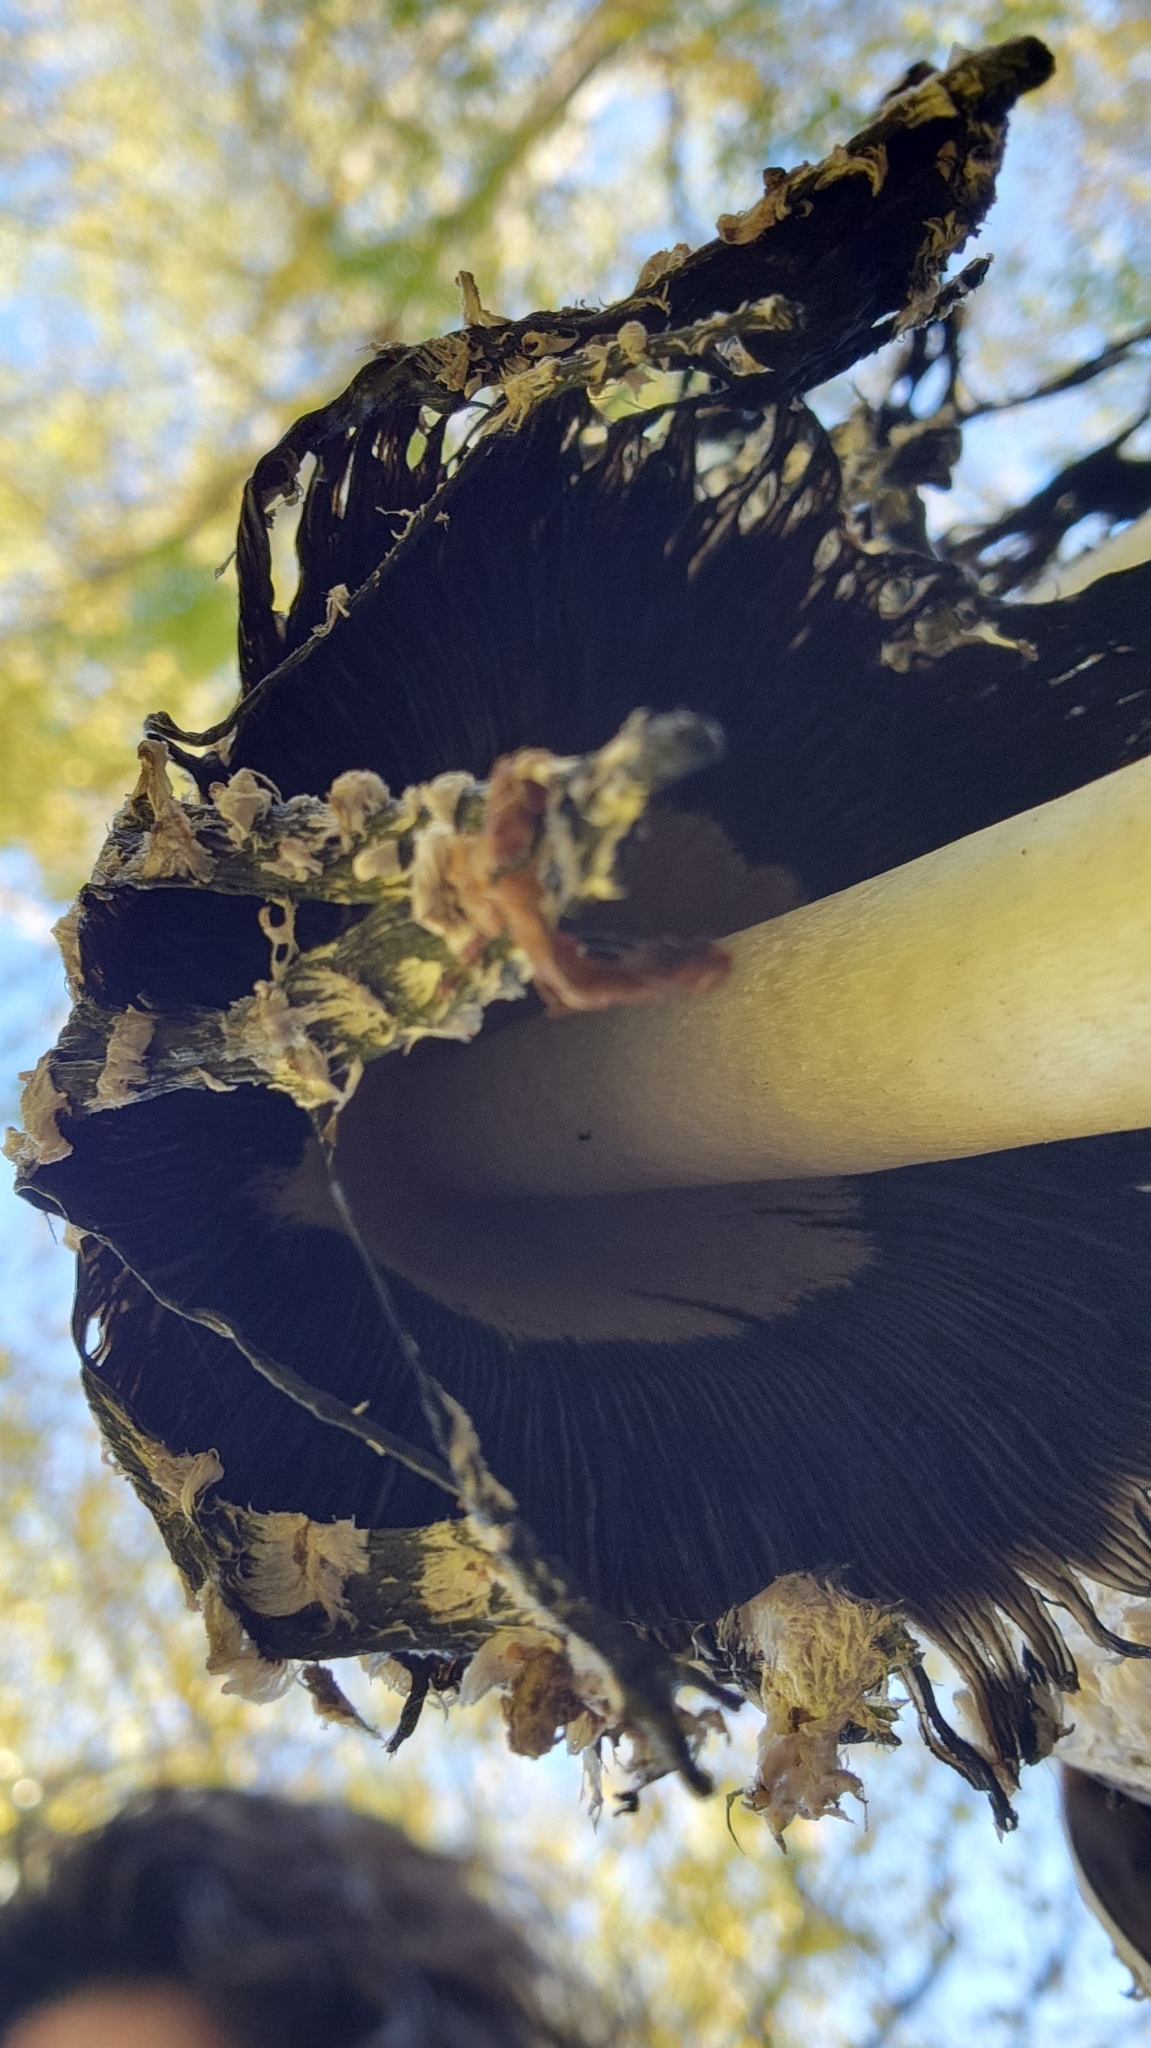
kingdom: Fungi
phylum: Basidiomycota
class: Agaricomycetes
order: Agaricales
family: Agaricaceae
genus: Coprinus
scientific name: Coprinus comatus
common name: Lawyer's wig
